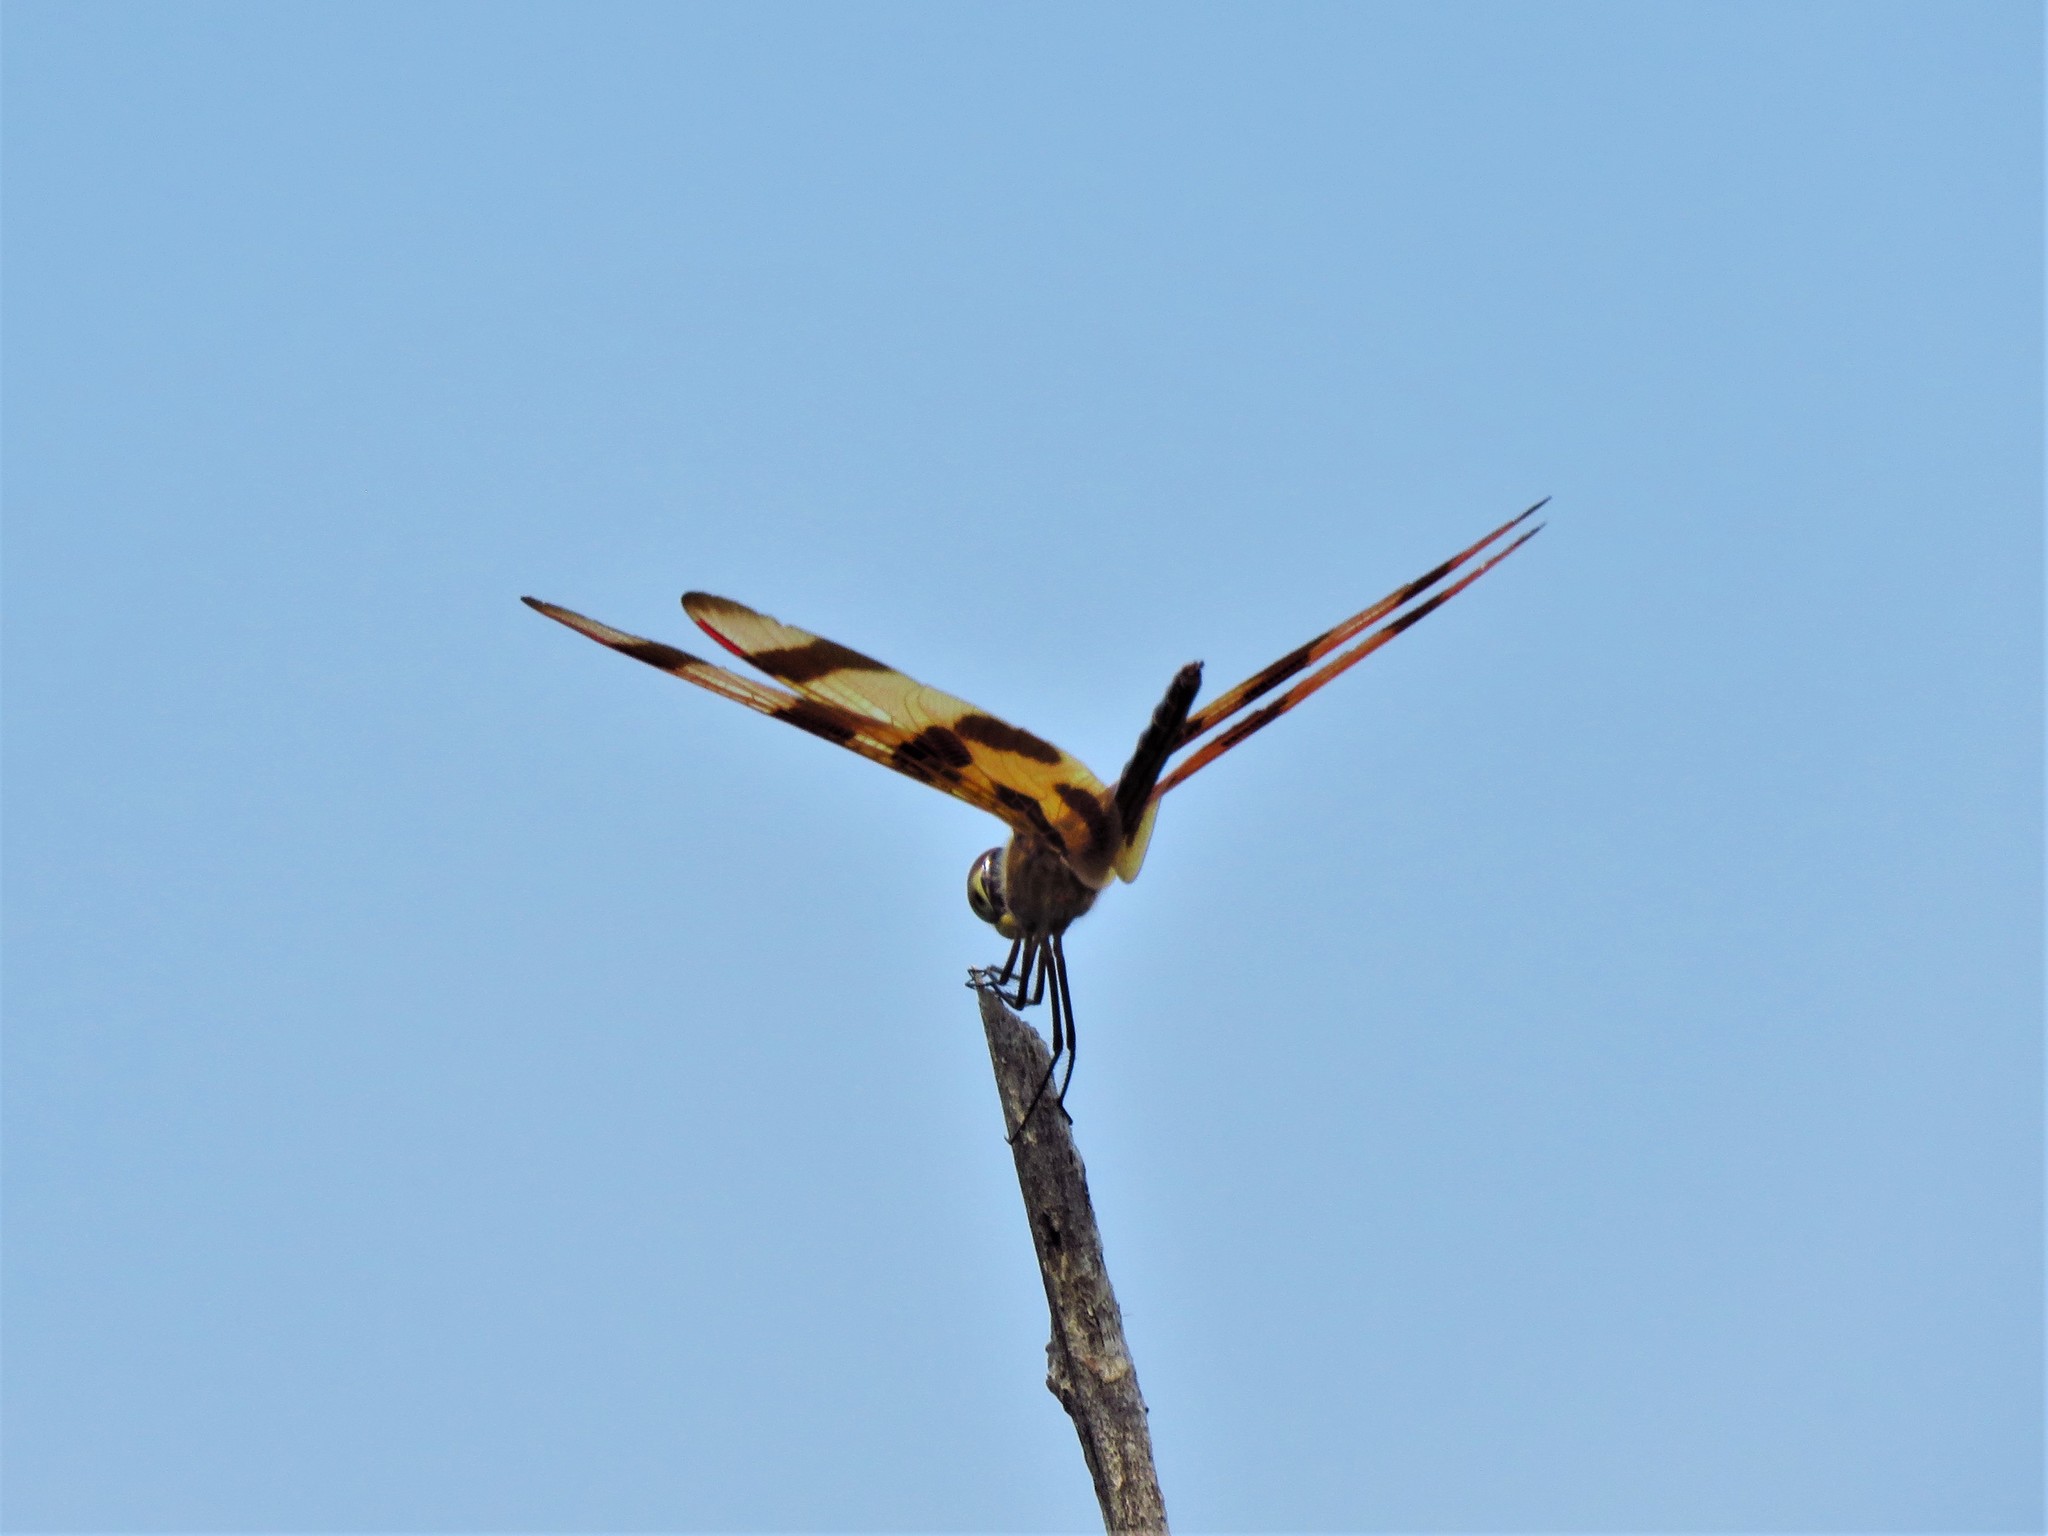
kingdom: Animalia
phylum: Arthropoda
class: Insecta
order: Odonata
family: Libellulidae
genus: Celithemis
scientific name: Celithemis eponina
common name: Halloween pennant
